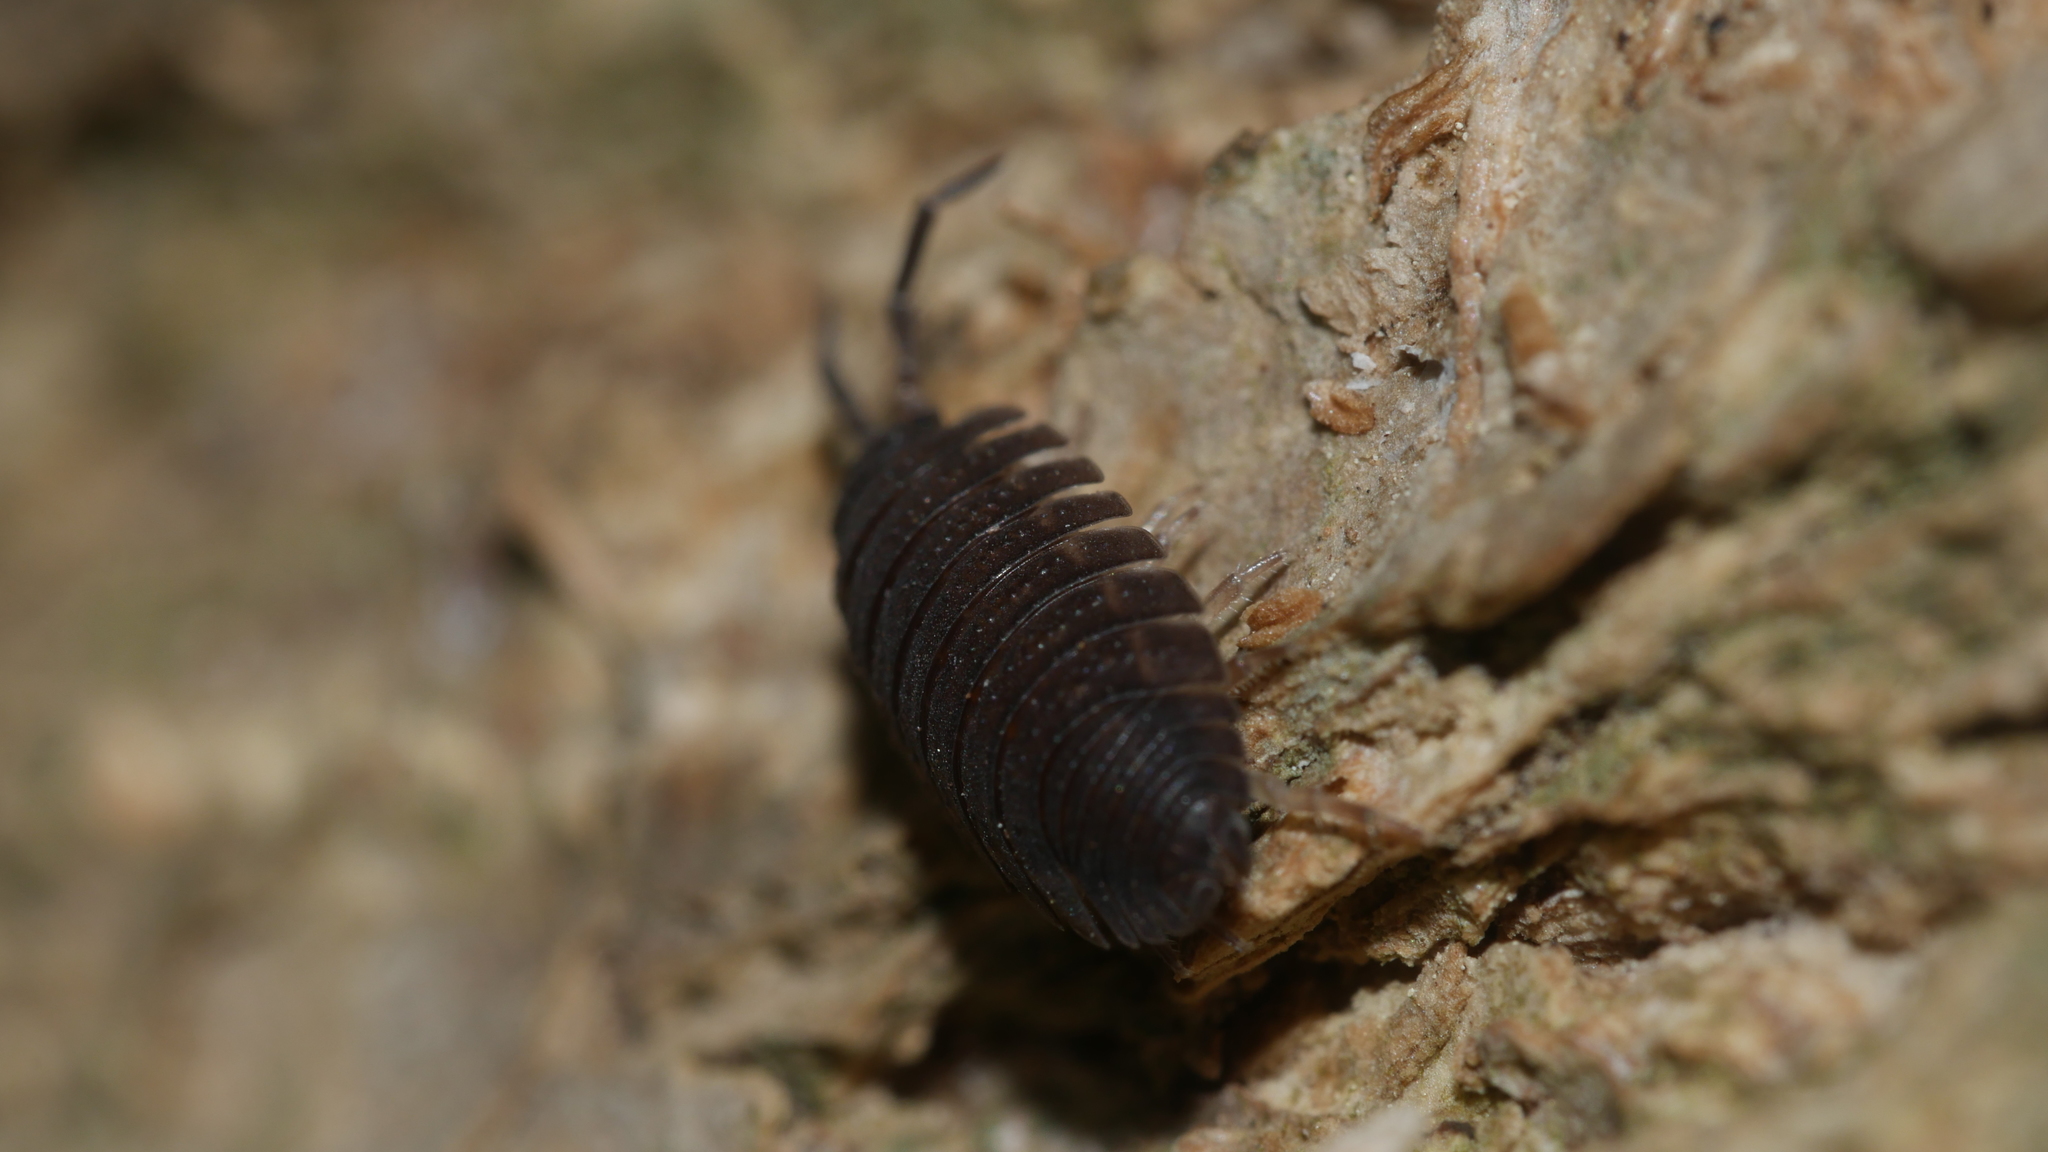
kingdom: Animalia
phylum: Arthropoda
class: Malacostraca
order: Isopoda
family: Porcellionidae
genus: Porcellio
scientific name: Porcellio scaber
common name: Common rough woodlouse
